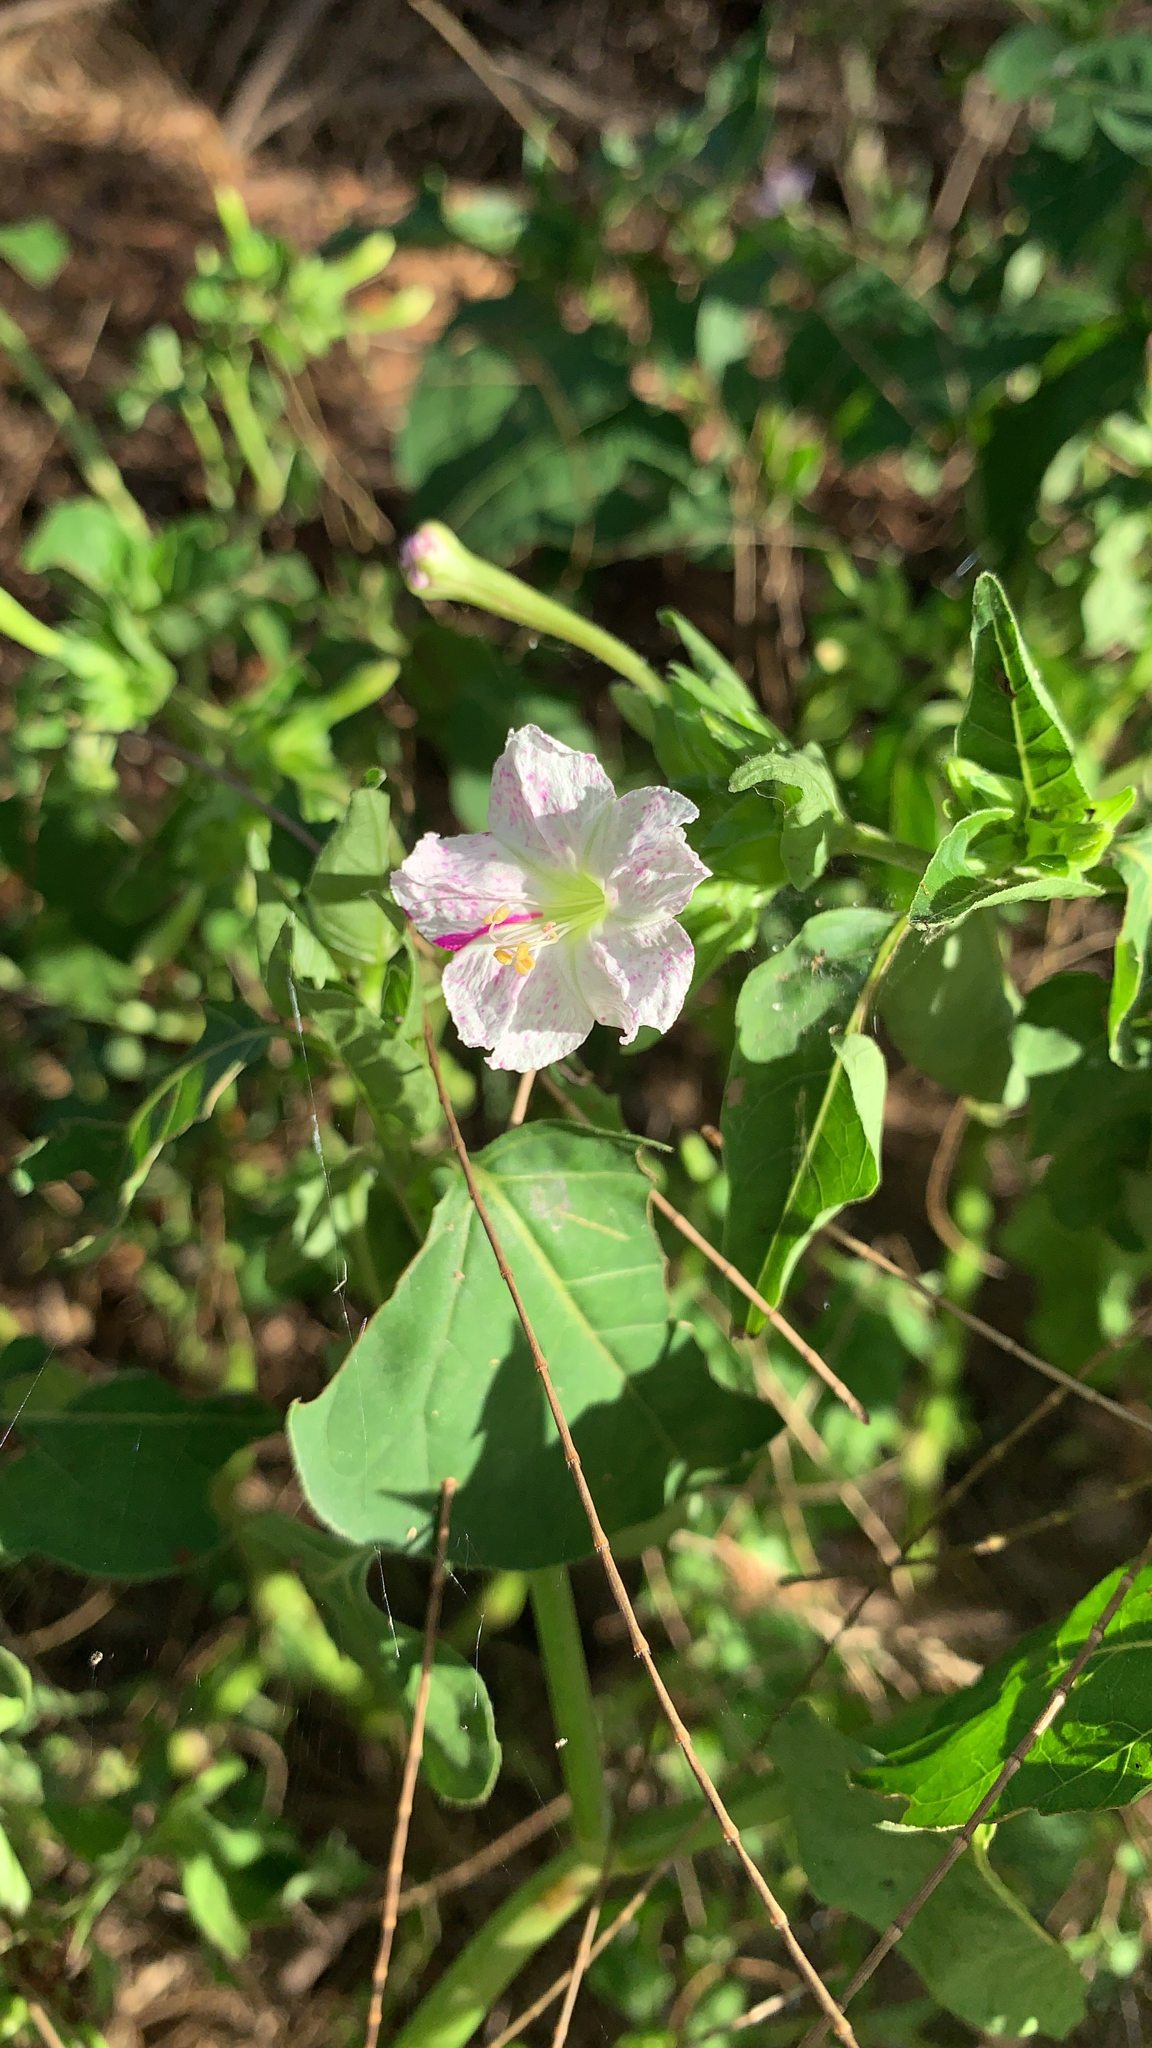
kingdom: Plantae
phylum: Tracheophyta
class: Magnoliopsida
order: Caryophyllales
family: Nyctaginaceae
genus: Mirabilis
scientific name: Mirabilis jalapa
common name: Marvel-of-peru
